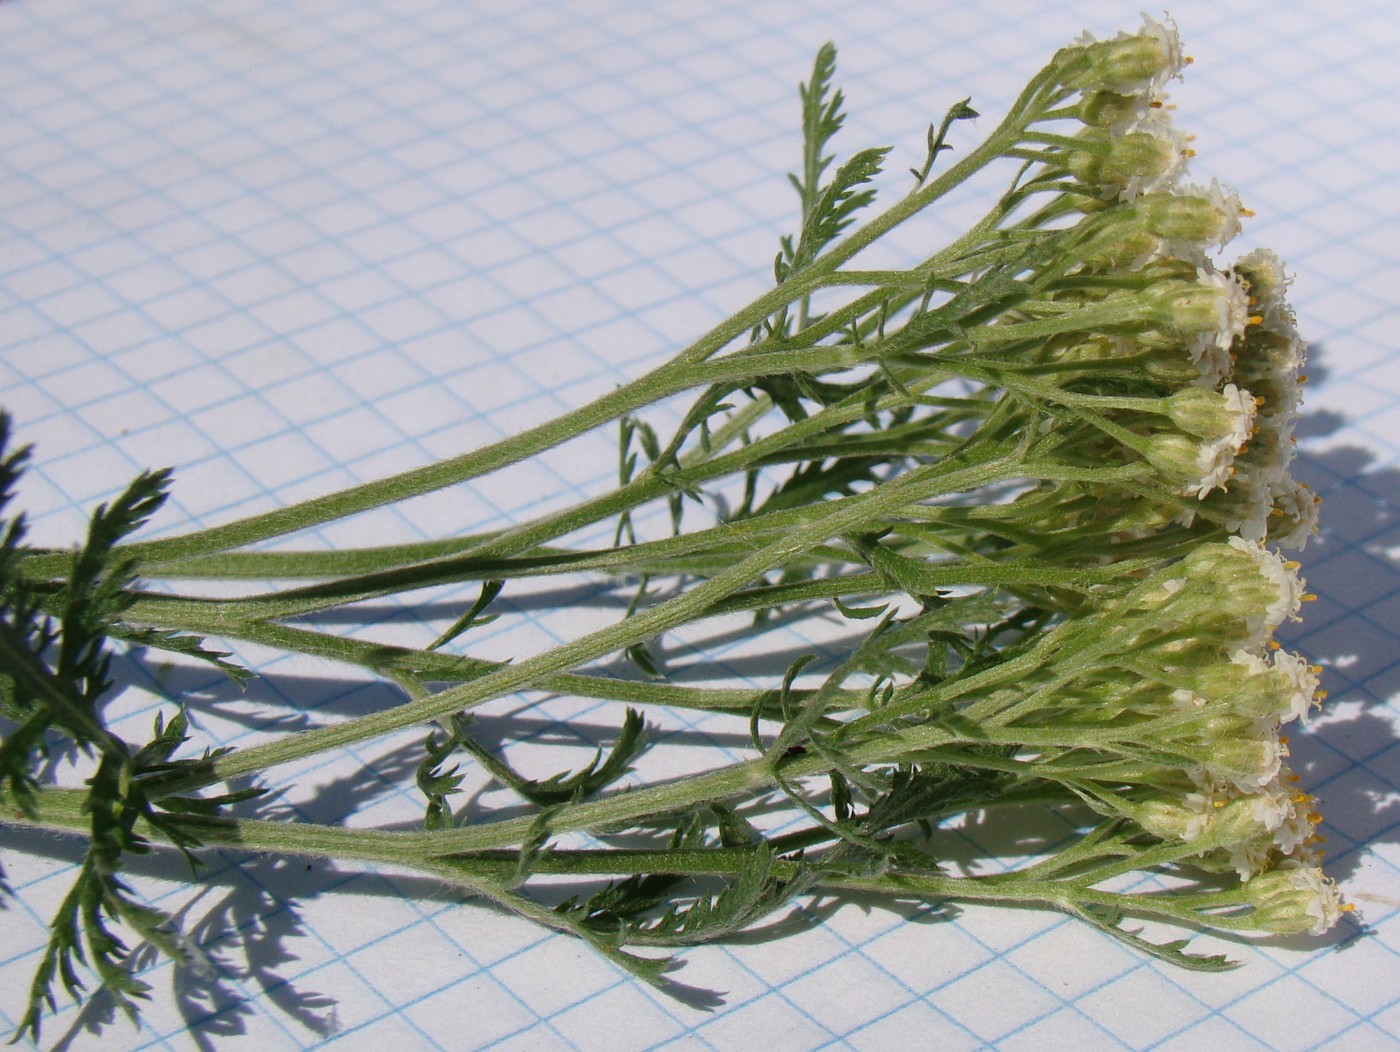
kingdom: Plantae
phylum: Tracheophyta
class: Magnoliopsida
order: Asterales
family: Asteraceae
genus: Achillea
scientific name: Achillea nobilis
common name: Noble yarrow
